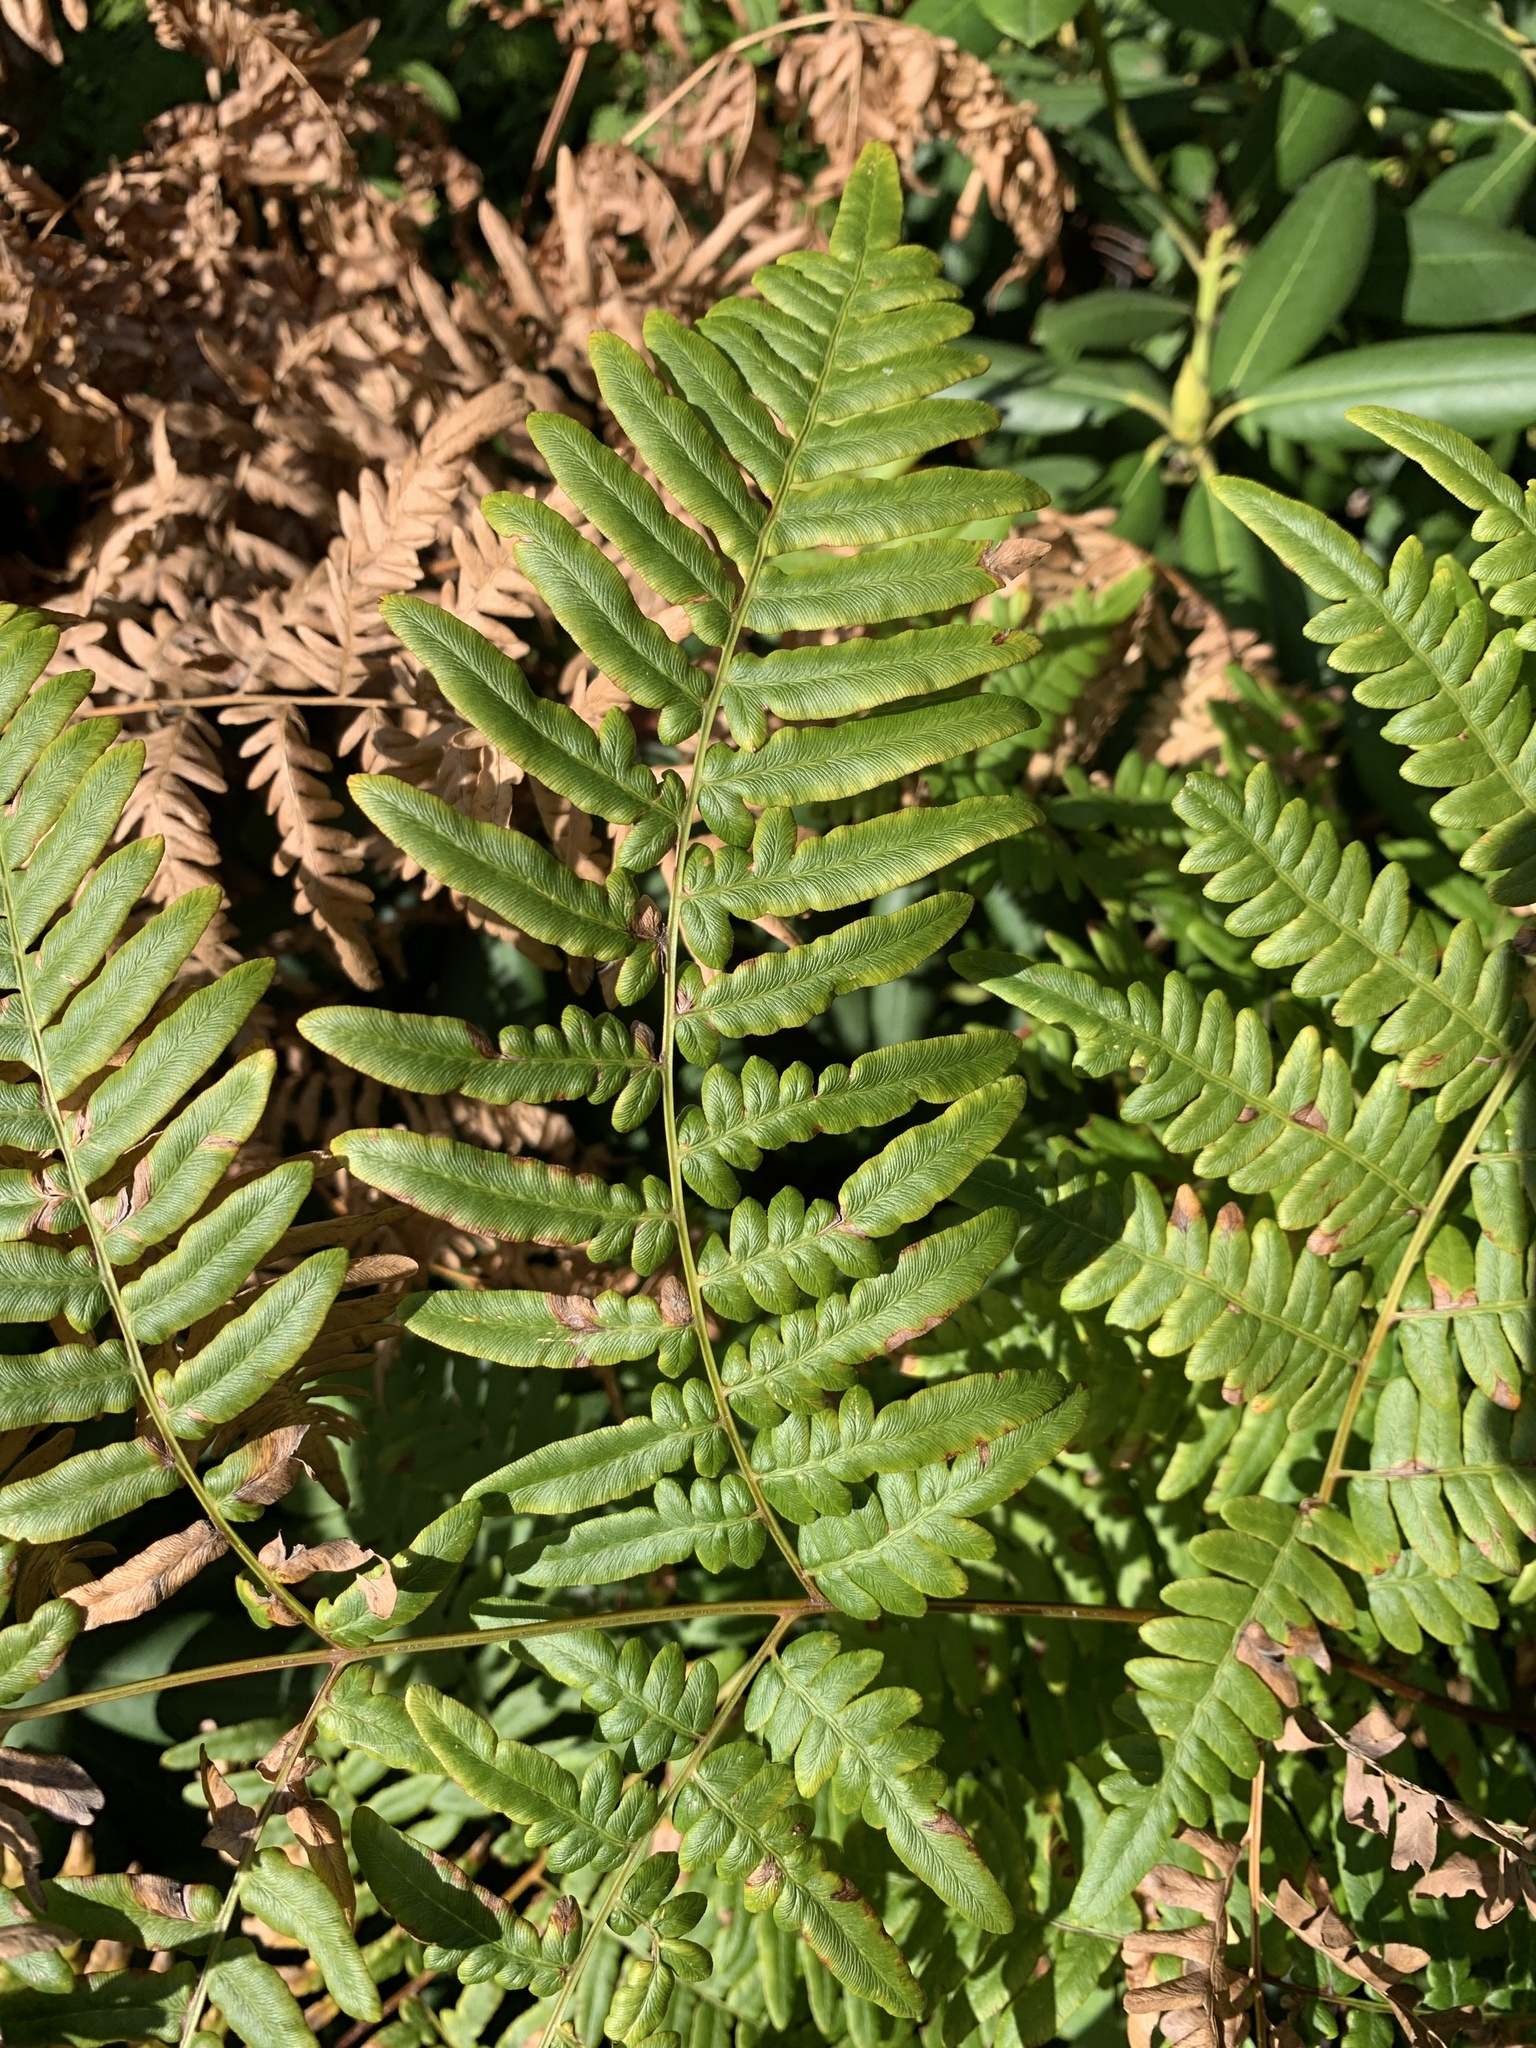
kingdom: Plantae
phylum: Tracheophyta
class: Polypodiopsida
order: Polypodiales
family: Dennstaedtiaceae
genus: Pteridium
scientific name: Pteridium aquilinum
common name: Bracken
